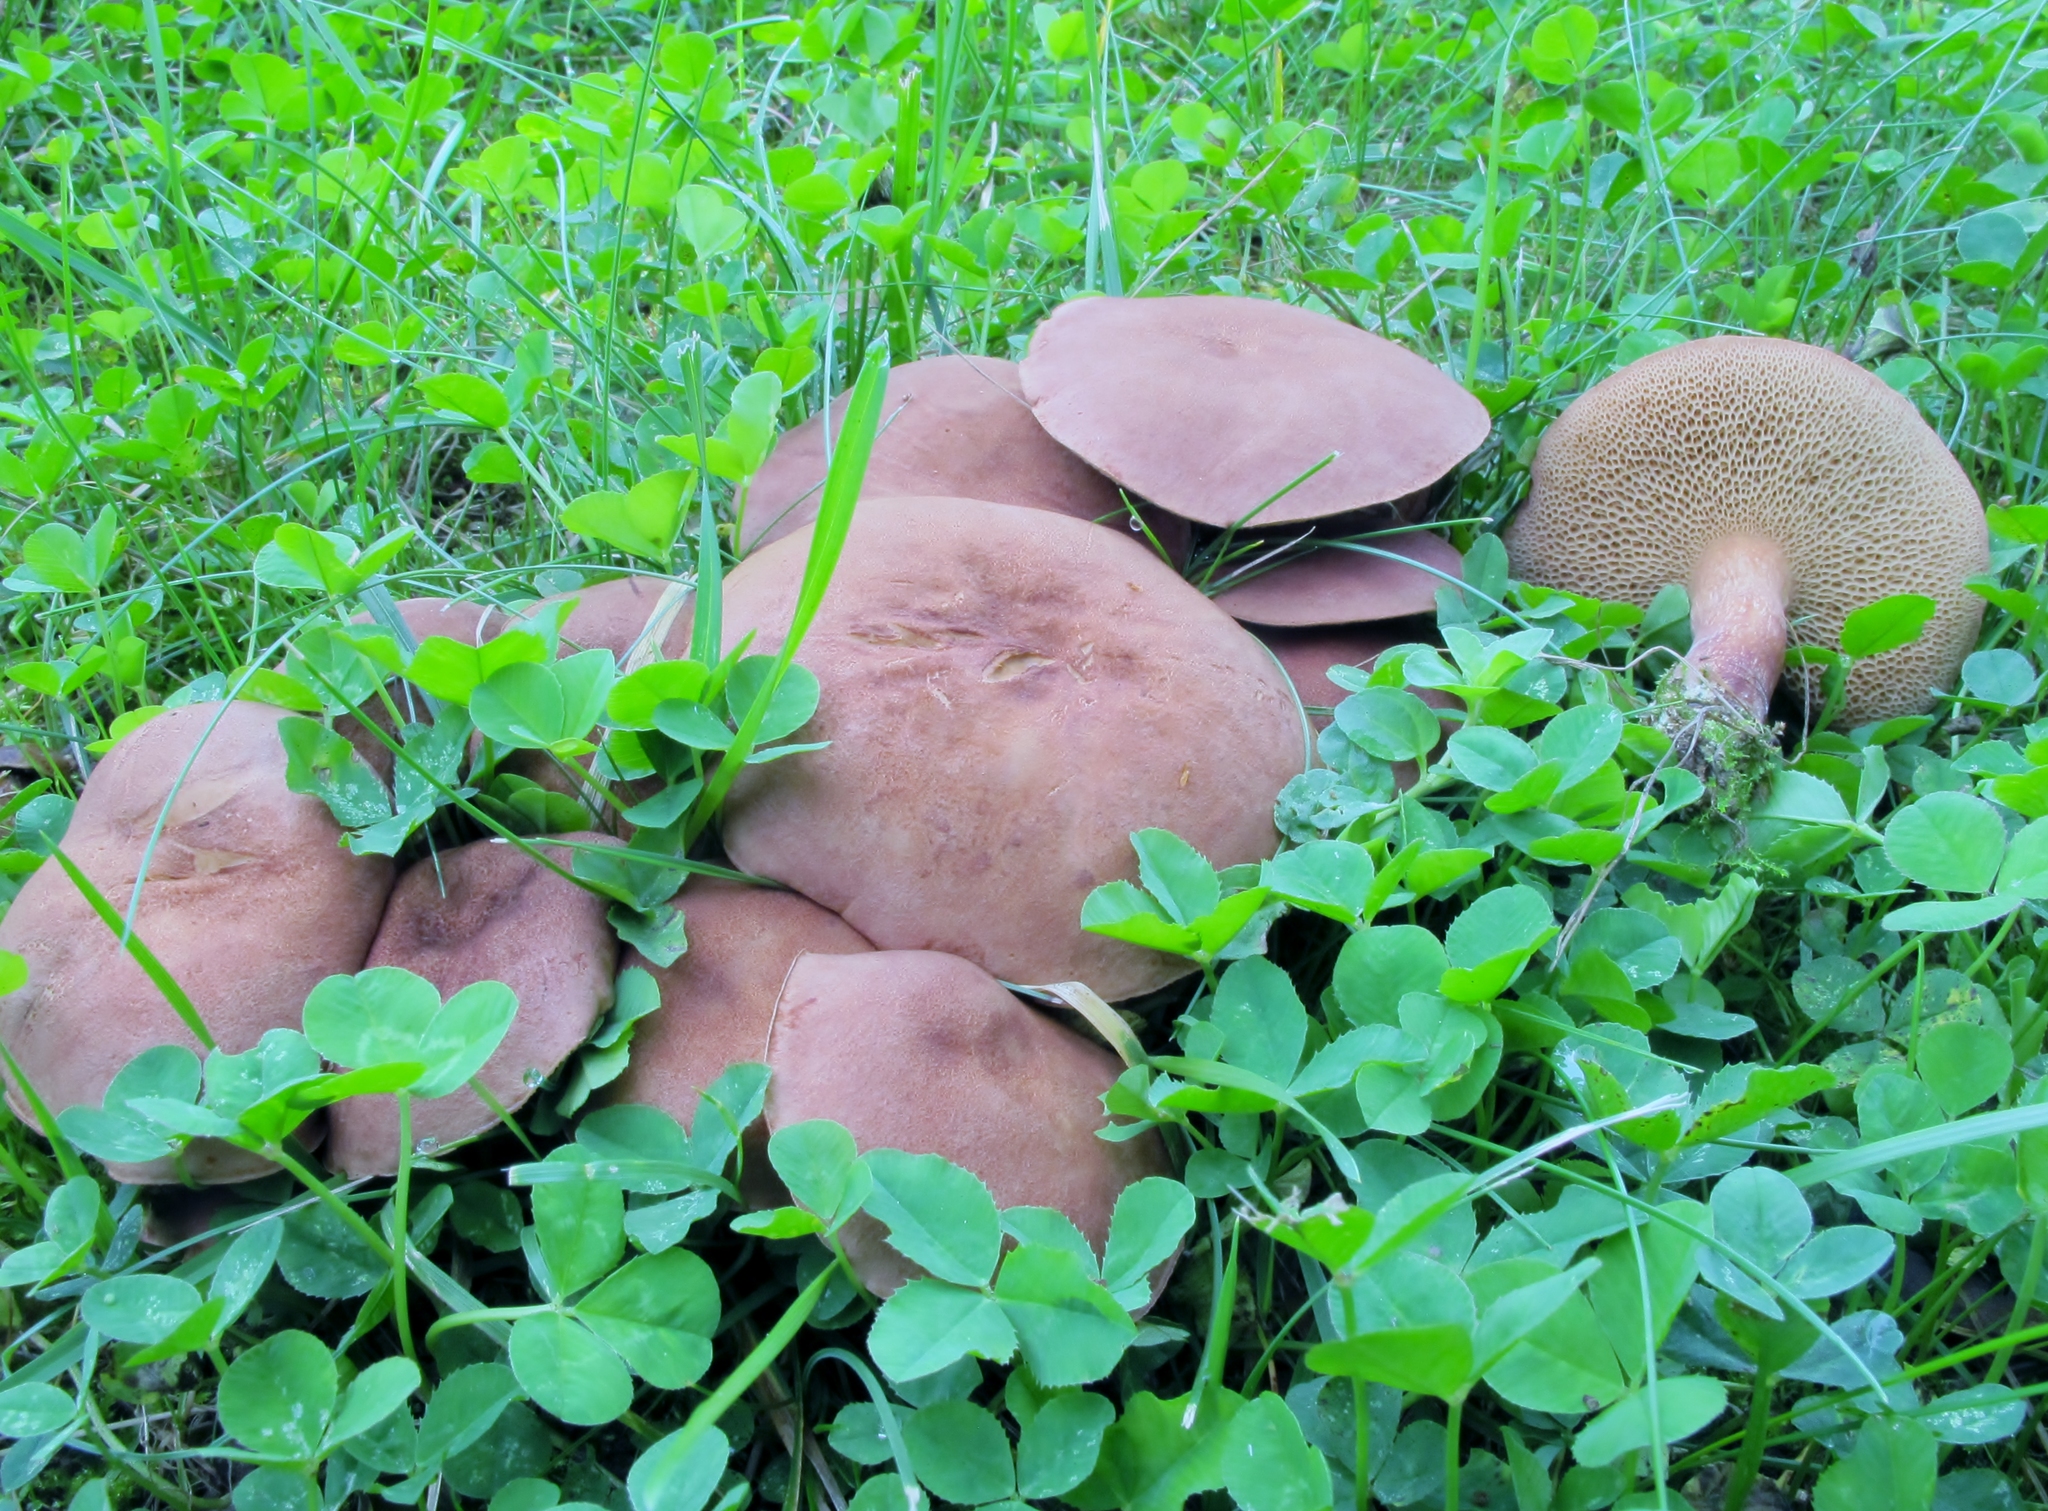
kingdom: Fungi
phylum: Basidiomycota
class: Agaricomycetes
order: Boletales
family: Boletaceae
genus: Bothia
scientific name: Bothia castanella
